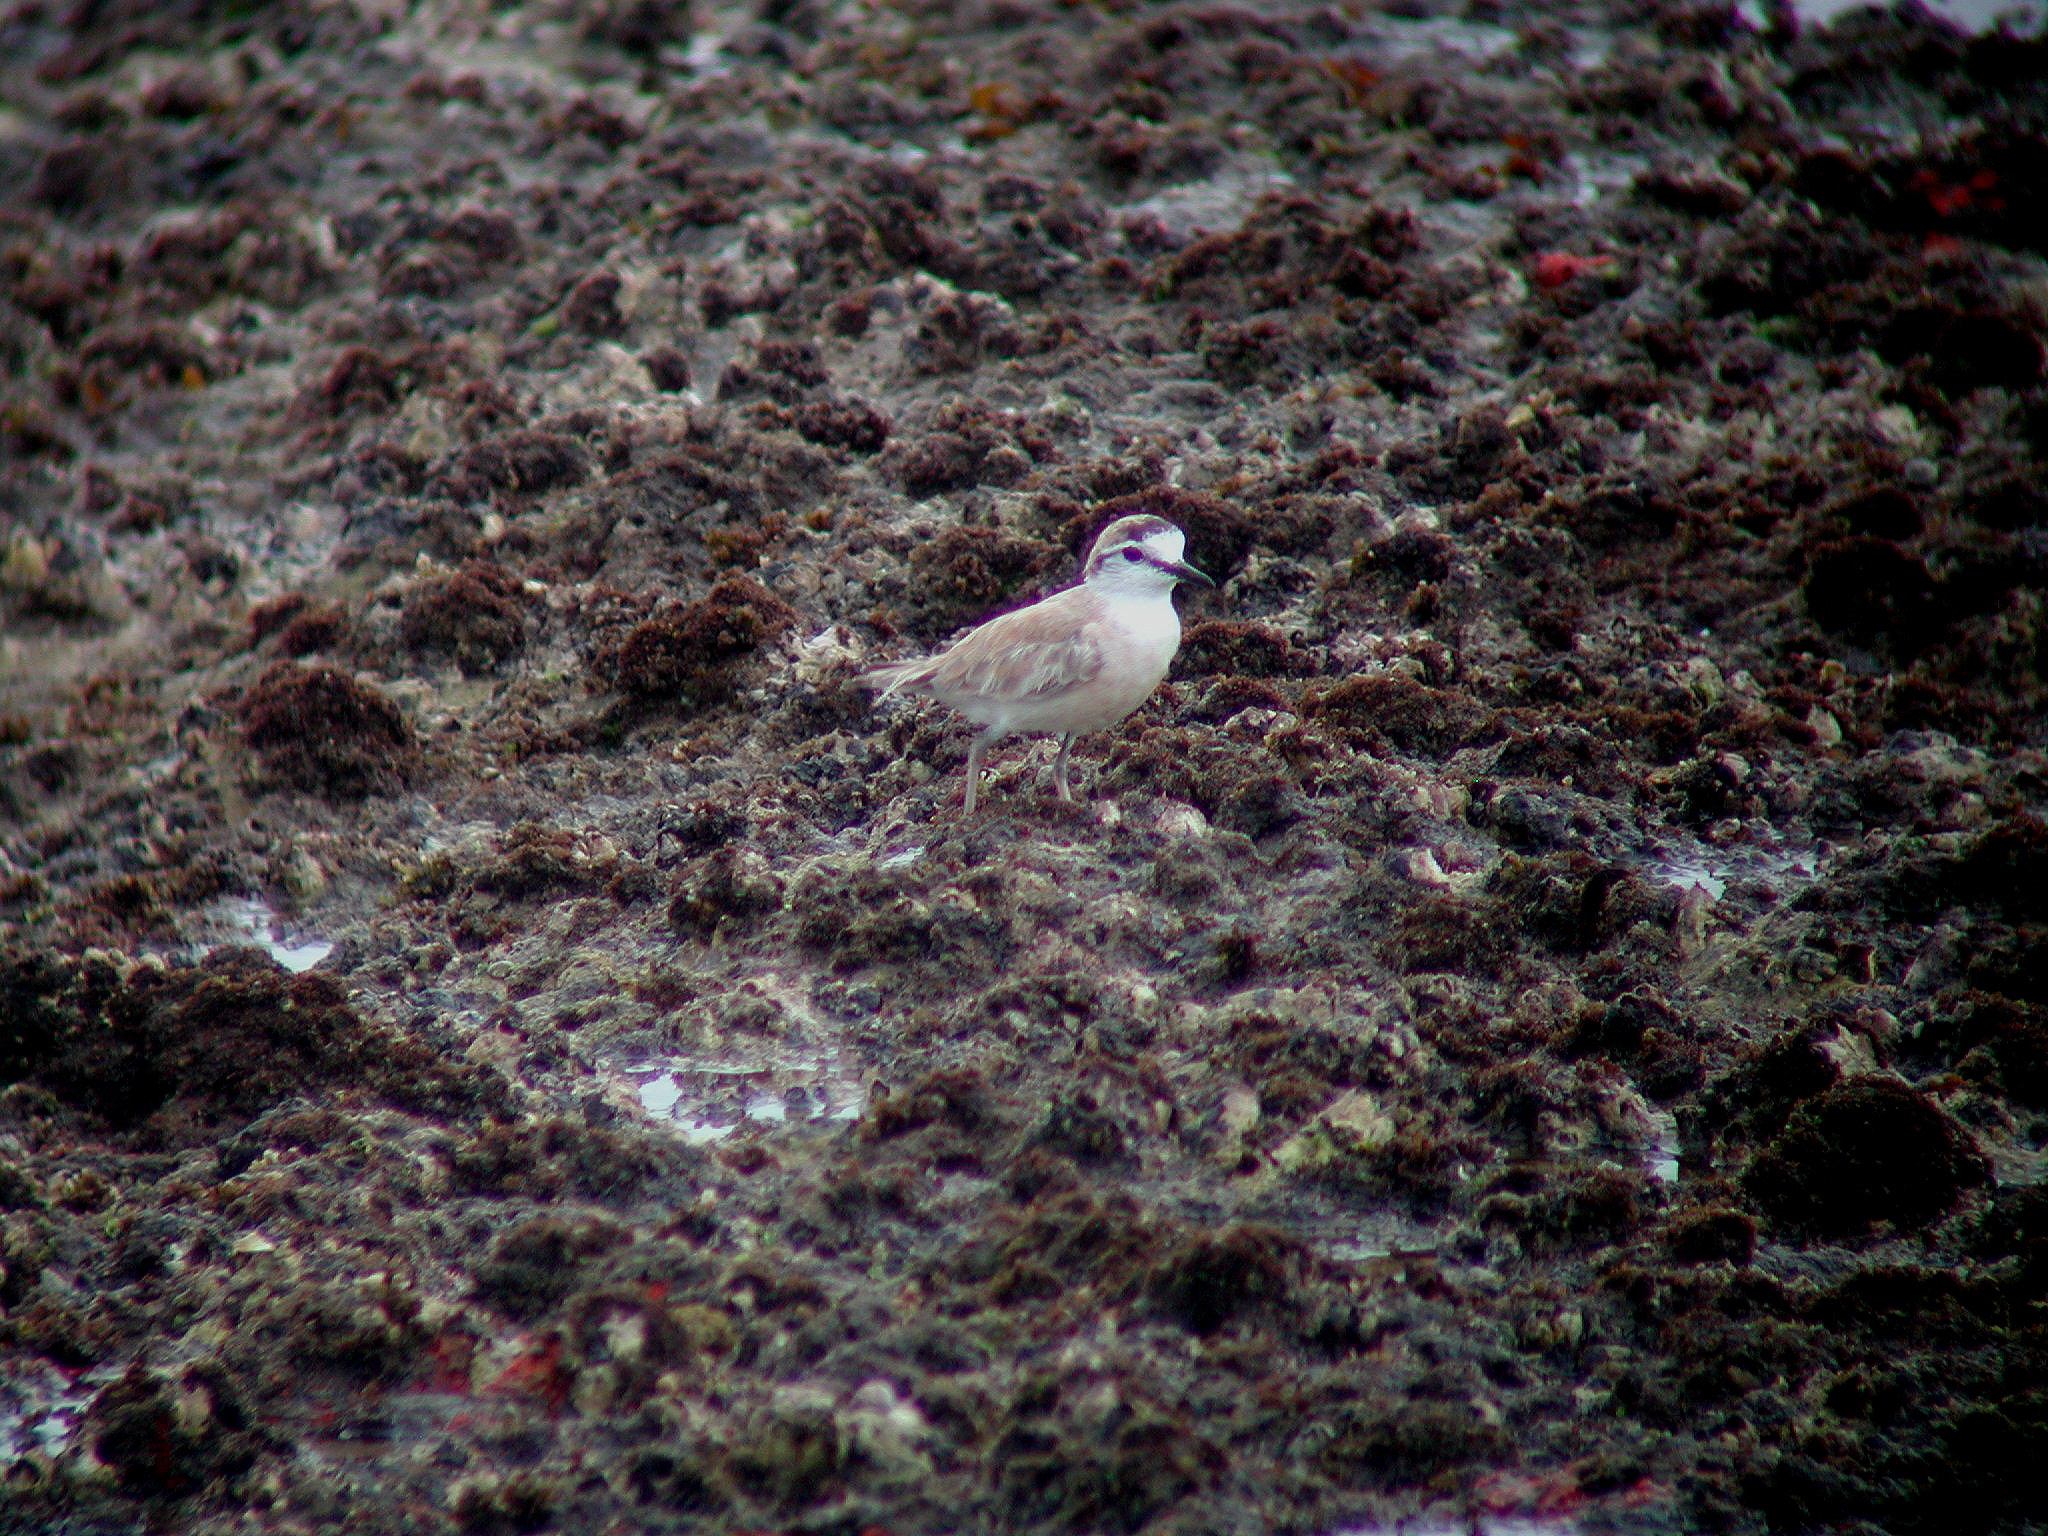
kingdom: Animalia
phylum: Chordata
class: Aves
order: Charadriiformes
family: Charadriidae
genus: Anarhynchus
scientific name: Anarhynchus
